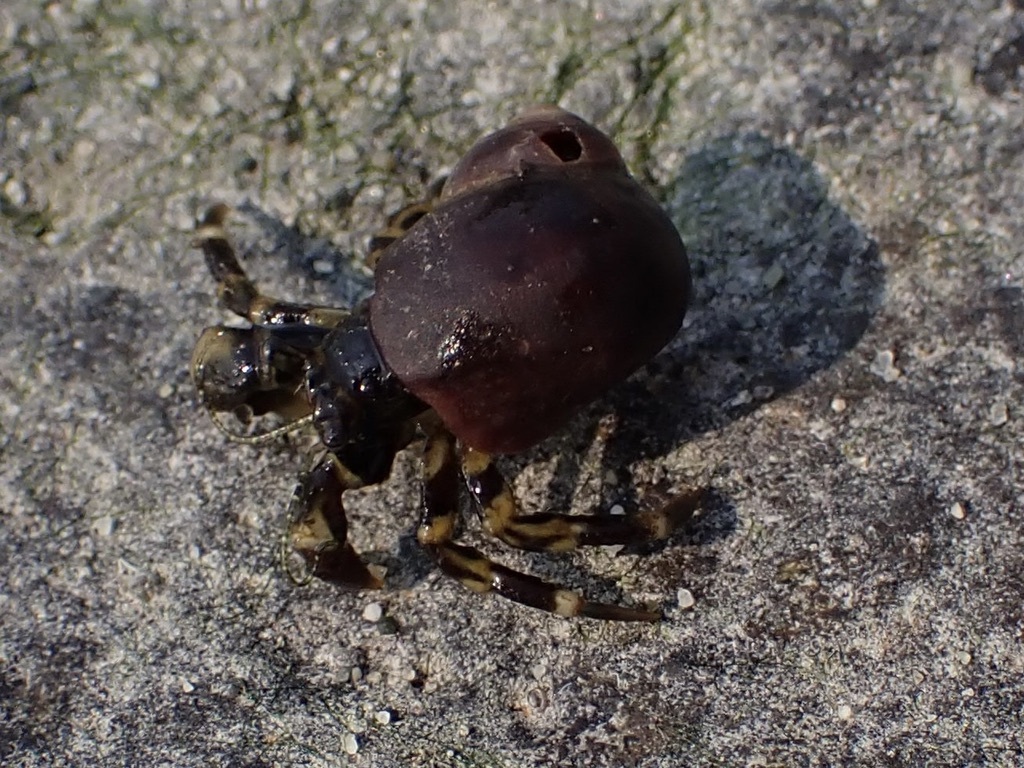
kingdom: Animalia
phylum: Arthropoda
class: Malacostraca
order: Decapoda
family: Paguridae
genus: Pagurus
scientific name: Pagurus hirsutiusculus
